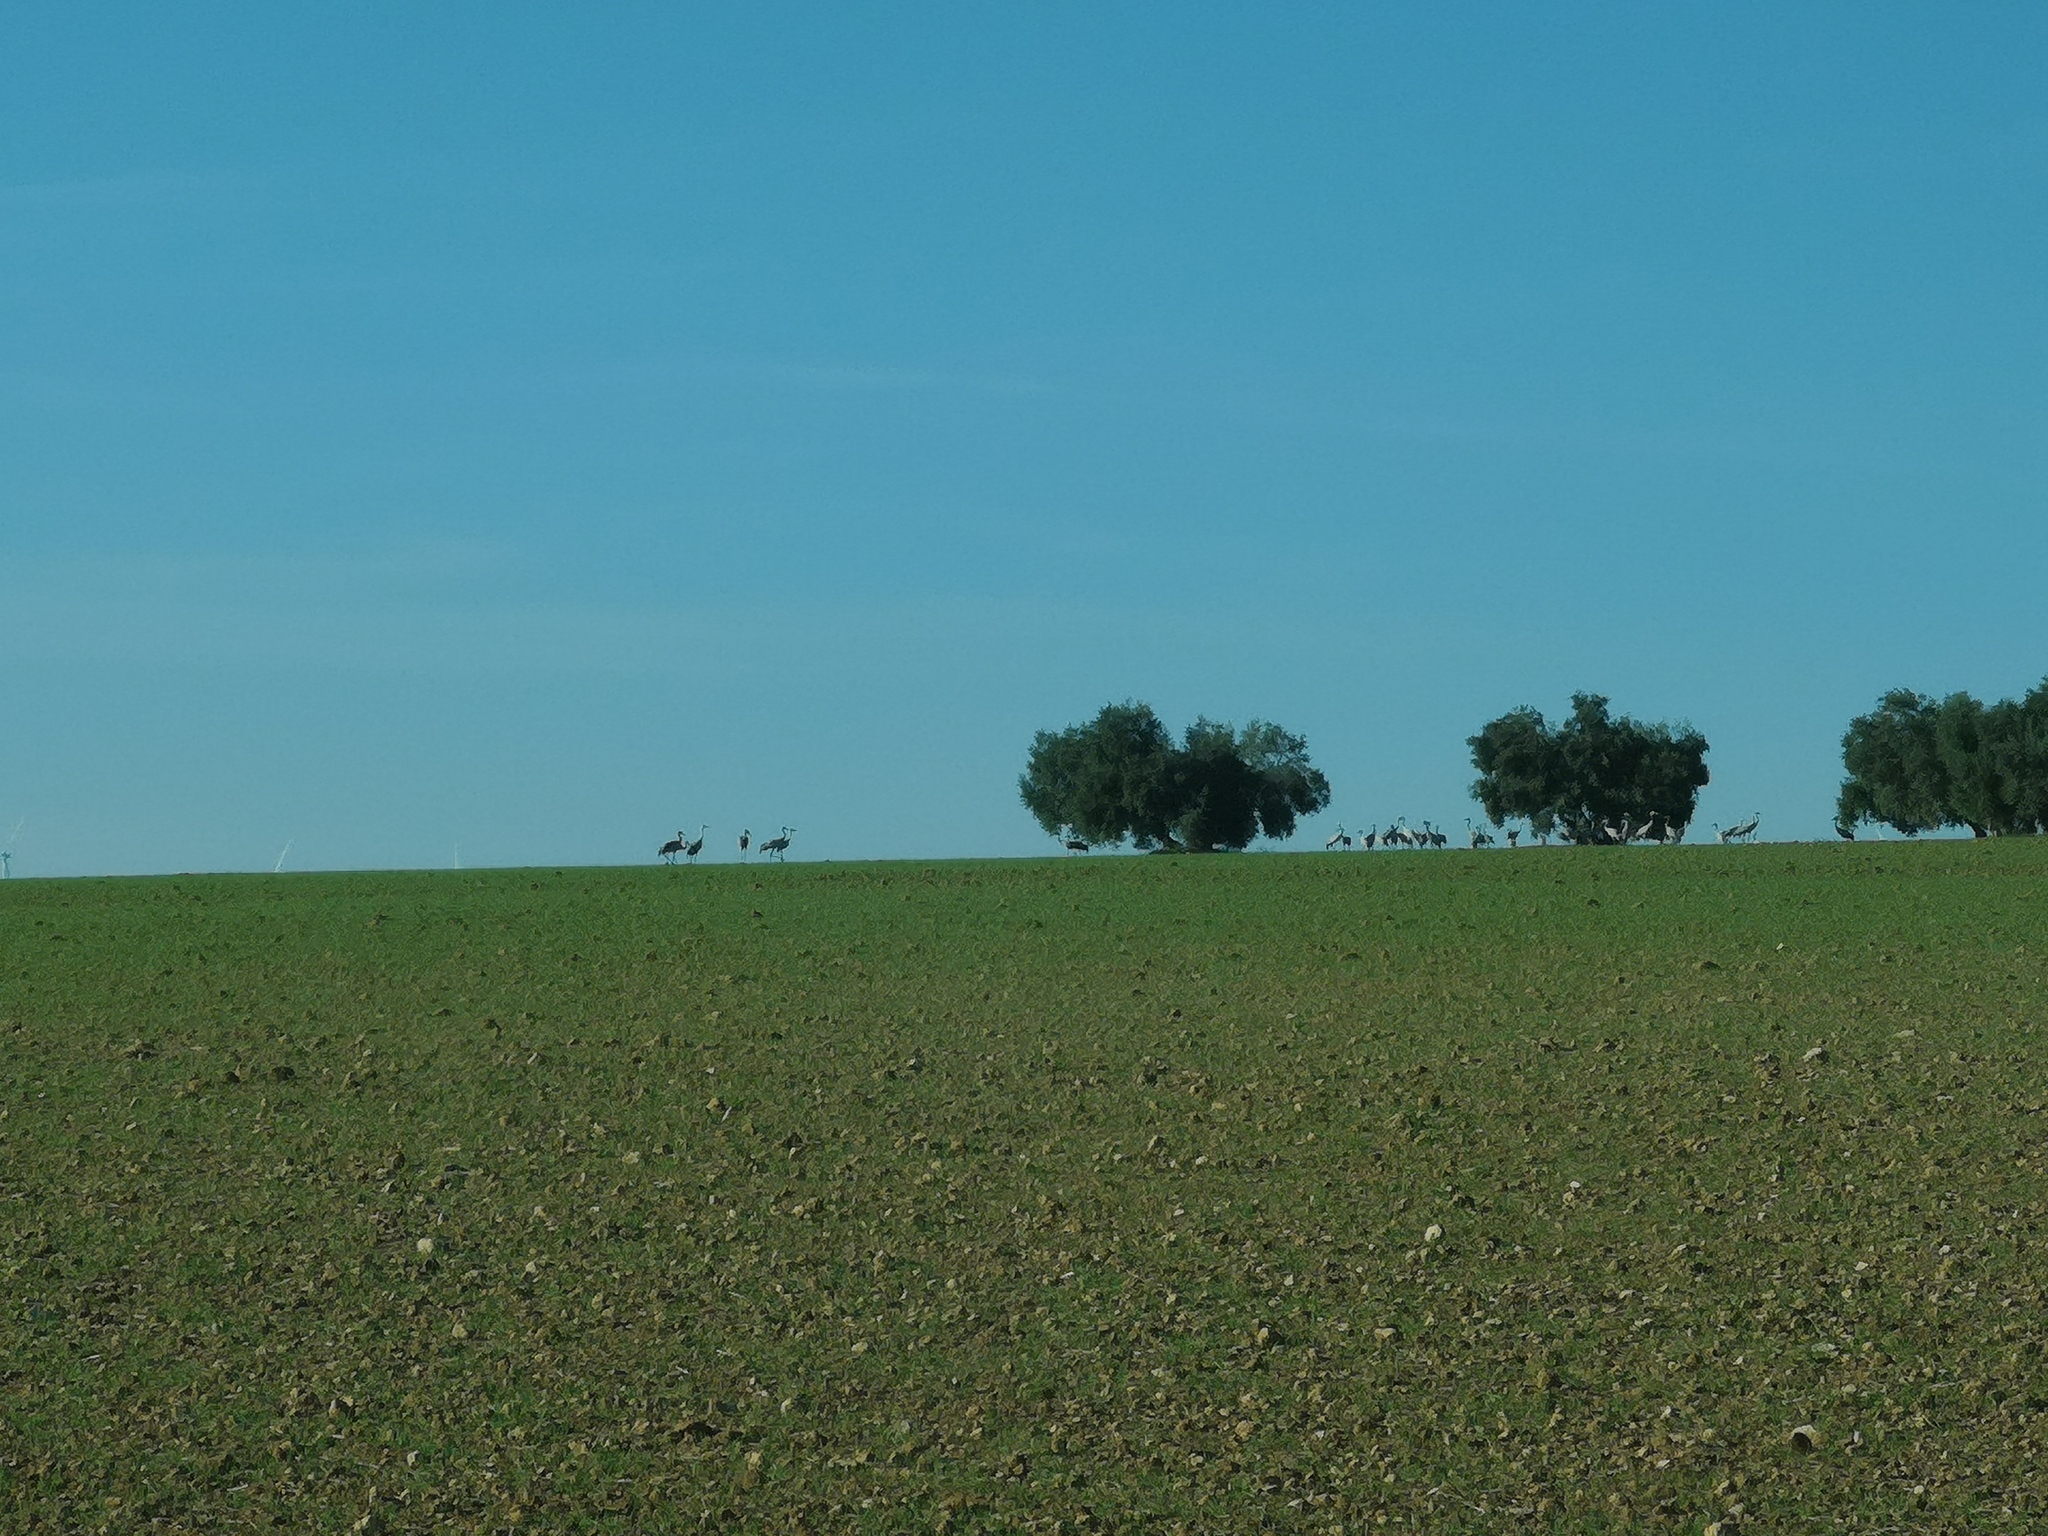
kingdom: Animalia
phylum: Chordata
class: Aves
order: Gruiformes
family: Gruidae
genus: Grus
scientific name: Grus grus
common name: Common crane
